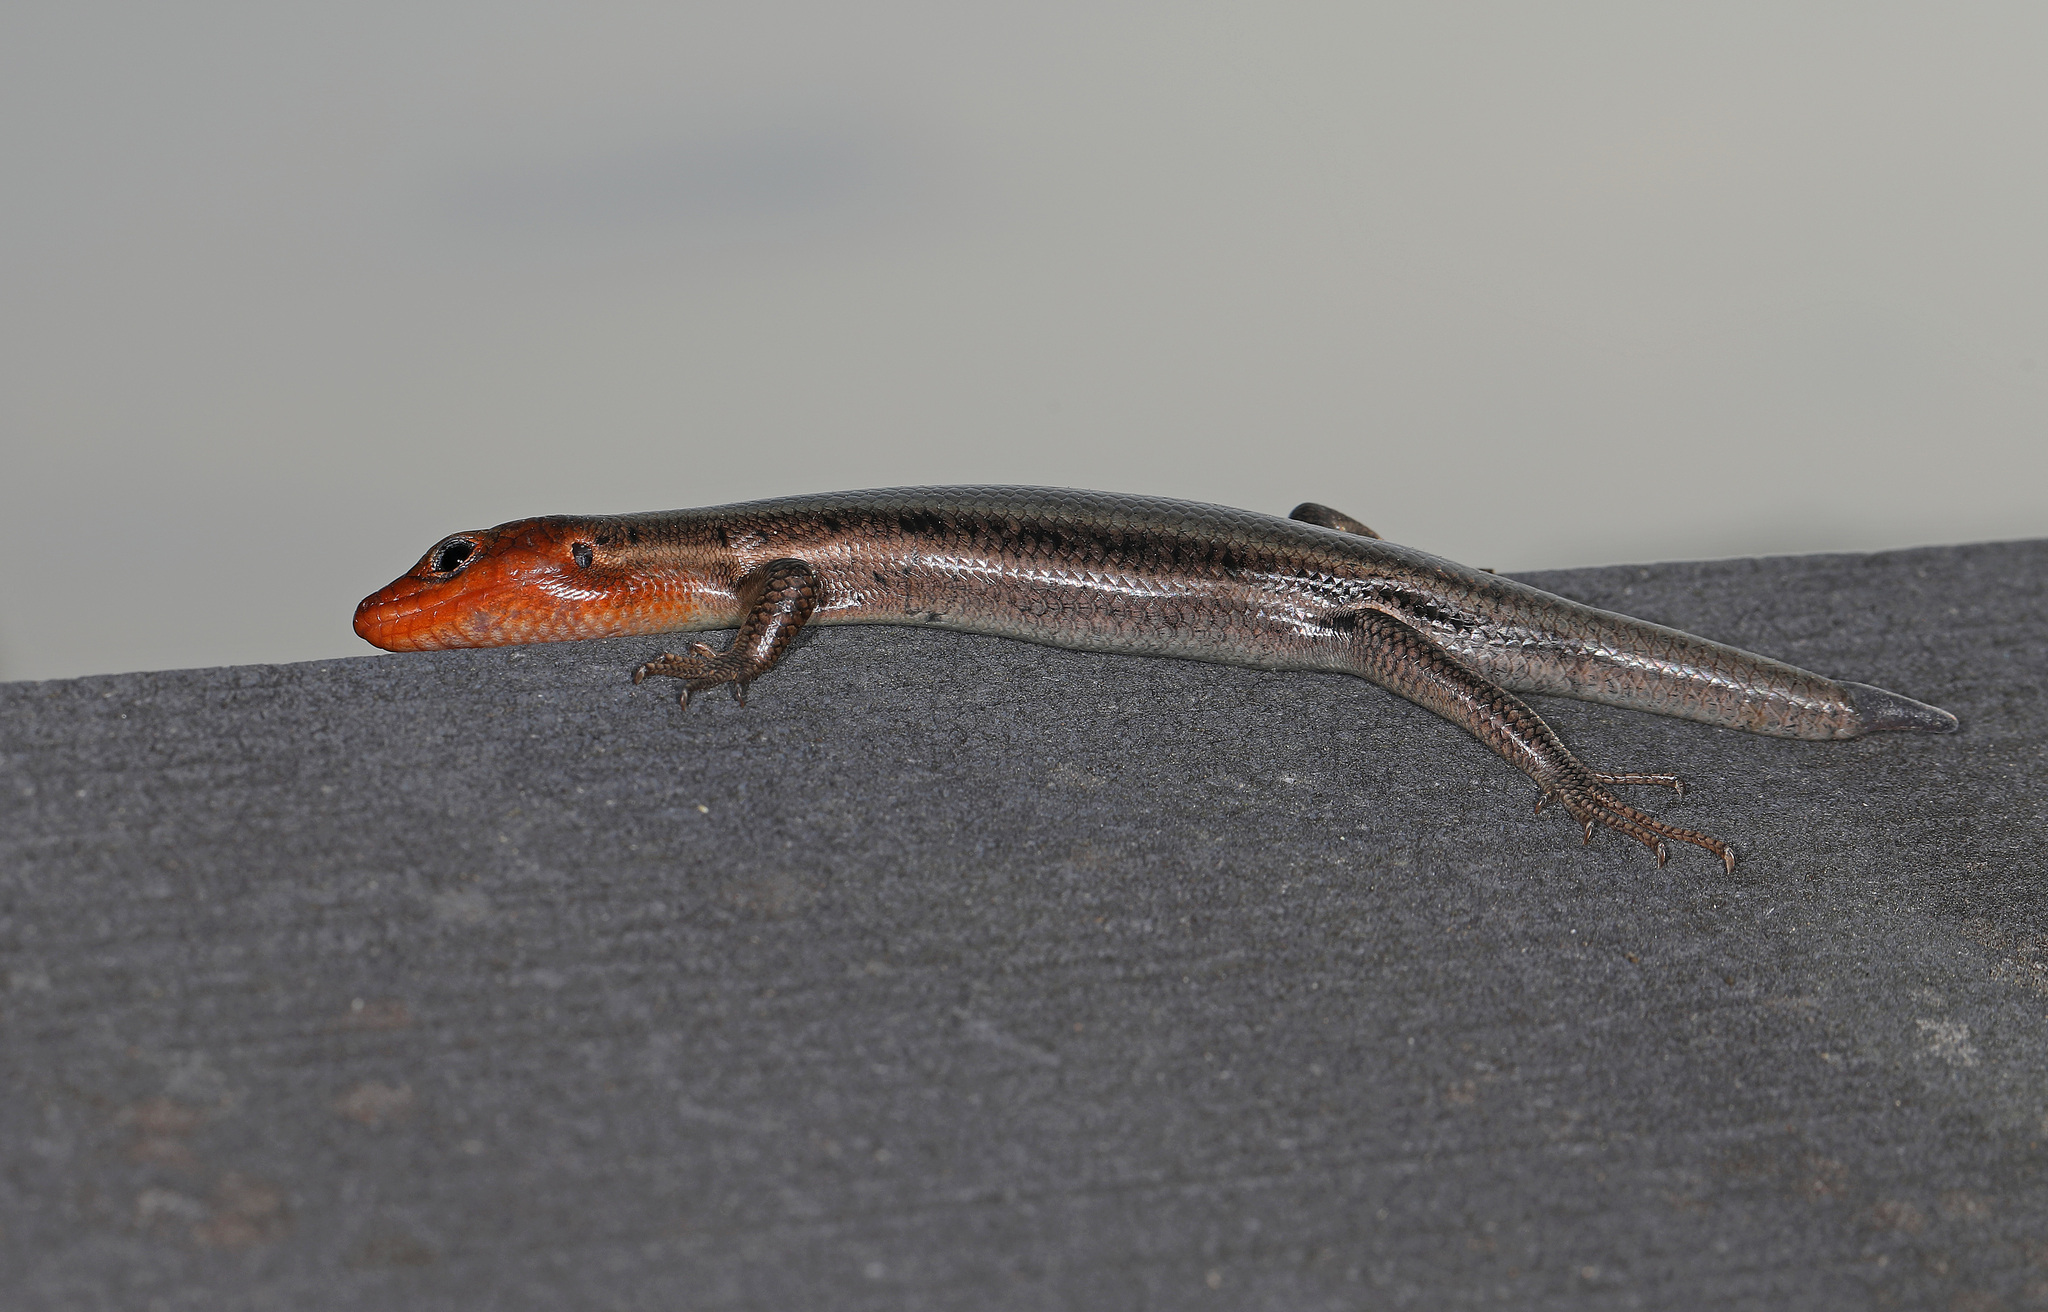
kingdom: Animalia
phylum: Chordata
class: Squamata
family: Scincidae
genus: Plestiodon
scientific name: Plestiodon fasciatus
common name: Five-lined skink
